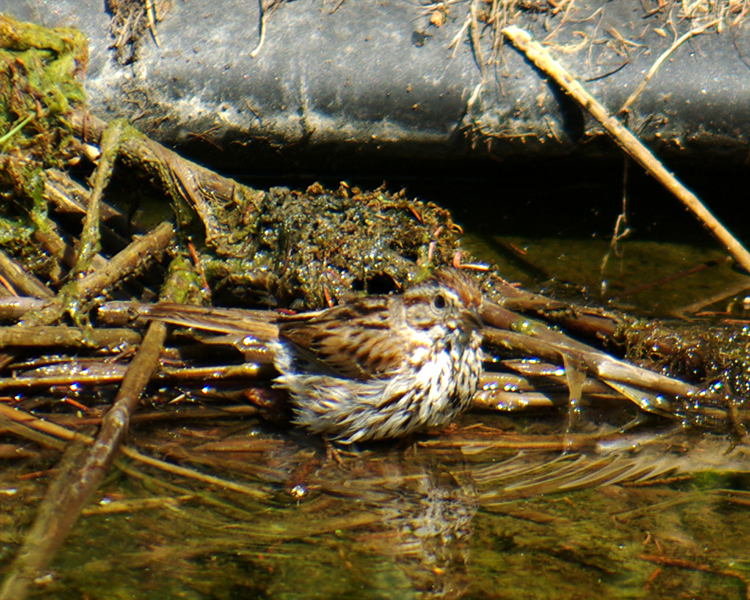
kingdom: Animalia
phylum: Chordata
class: Aves
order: Passeriformes
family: Passerellidae
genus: Melospiza
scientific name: Melospiza melodia
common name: Song sparrow
